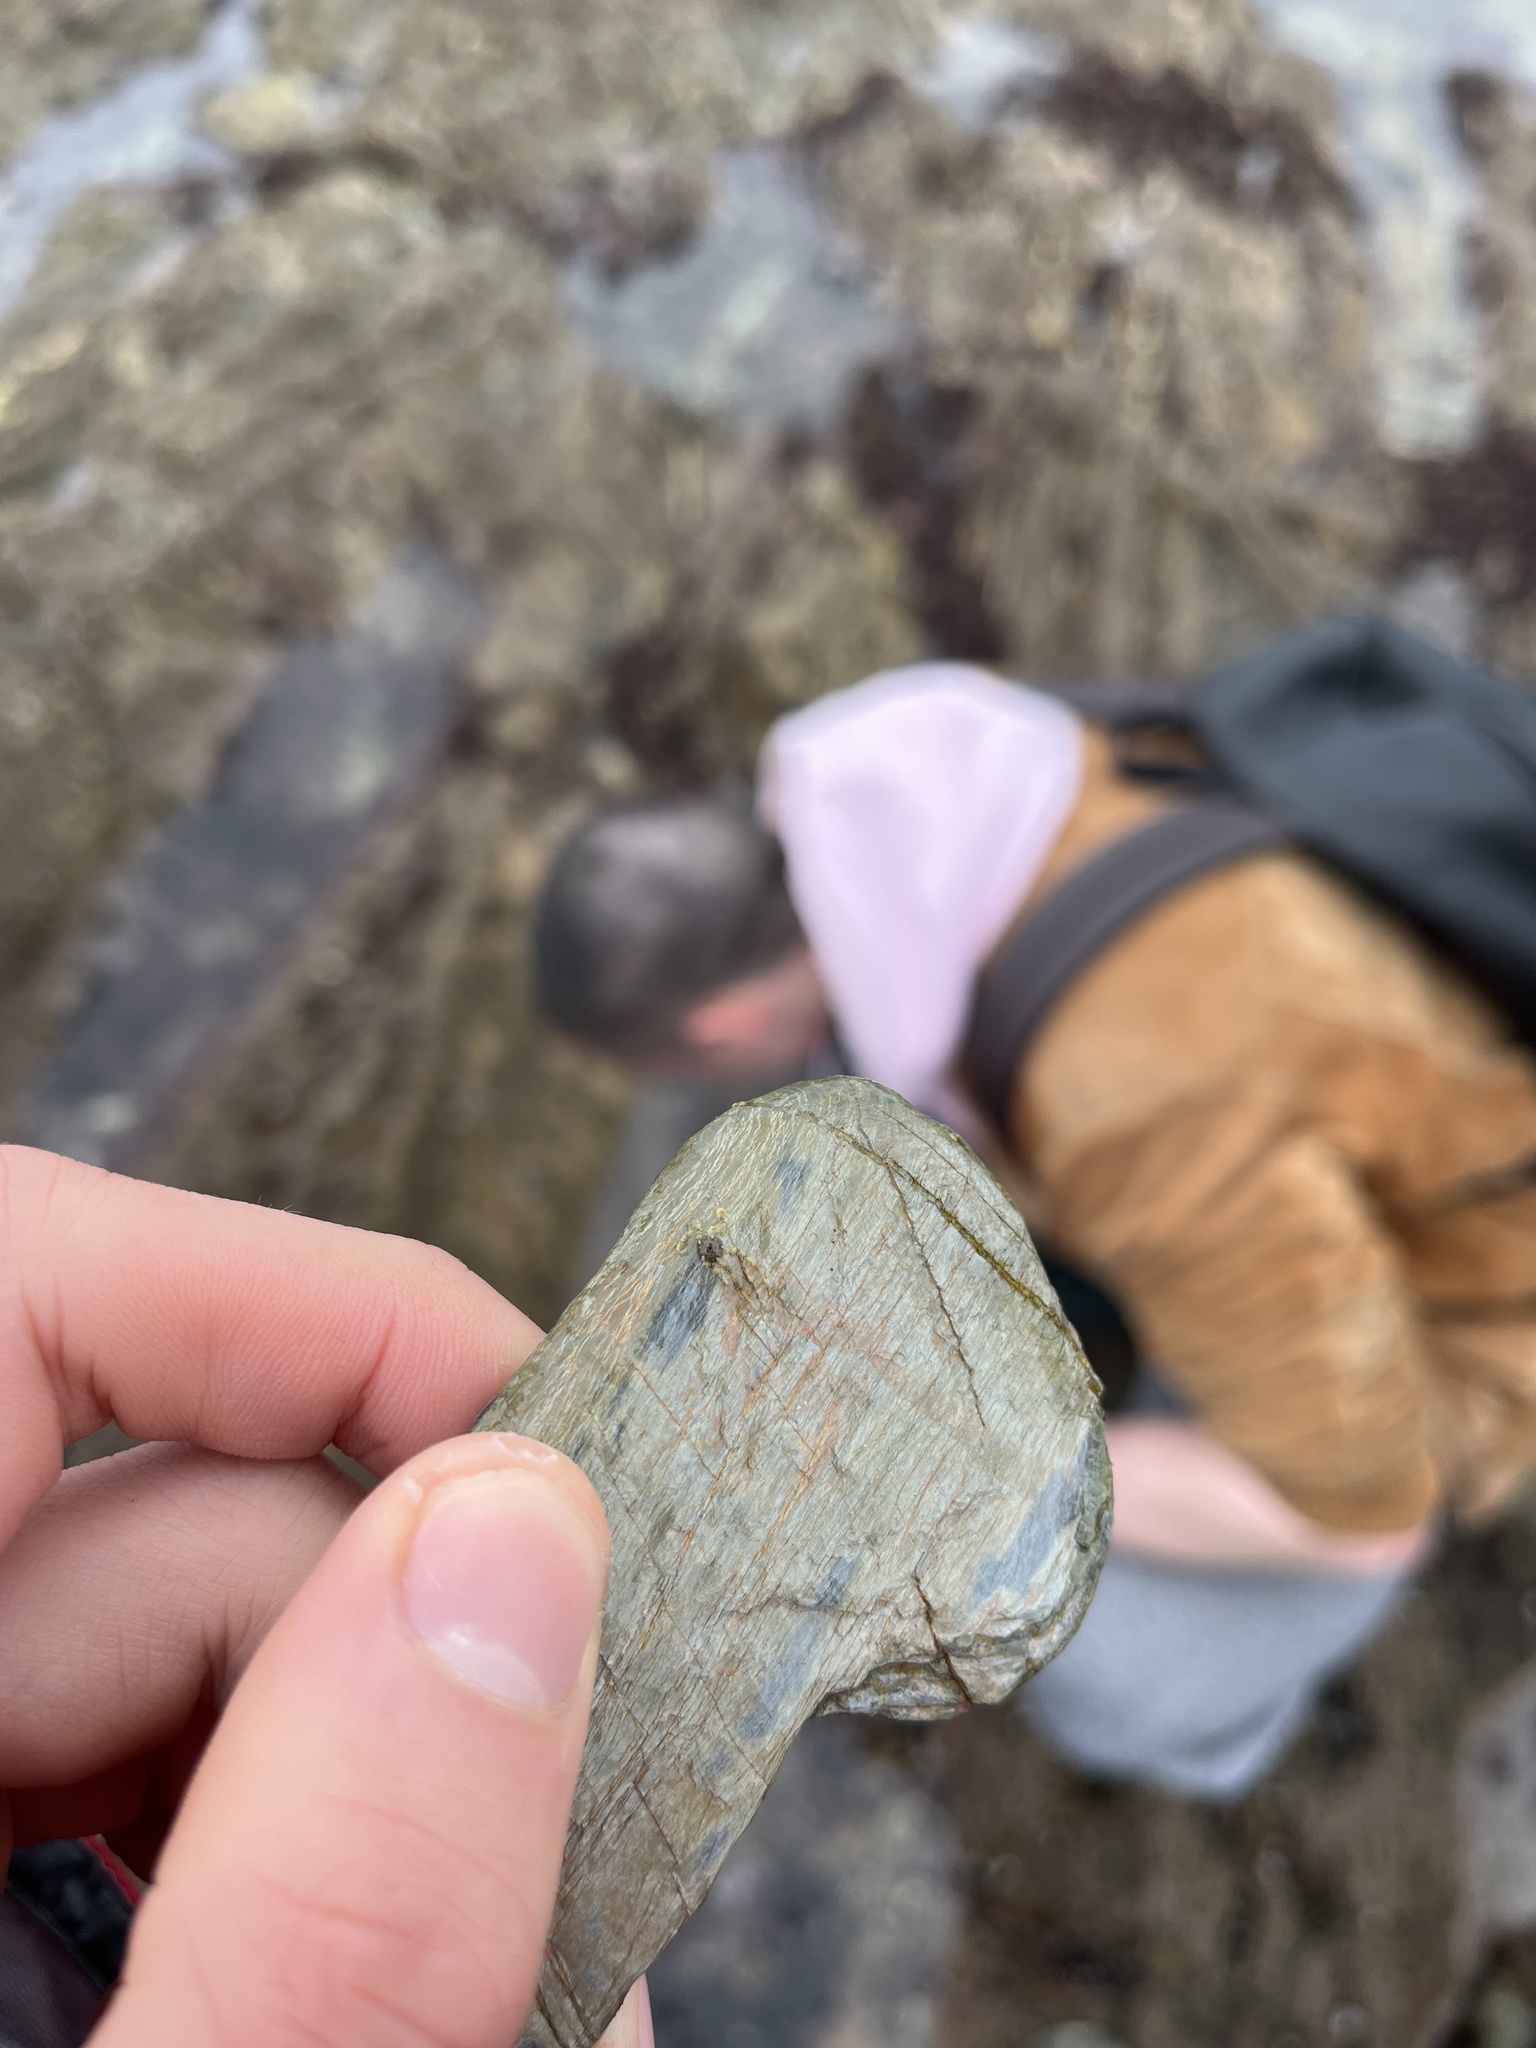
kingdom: Animalia
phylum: Echinodermata
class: Ophiuroidea
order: Amphilepidida
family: Amphiuridae
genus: Amphipholis
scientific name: Amphipholis squamata
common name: Brooding snake star
